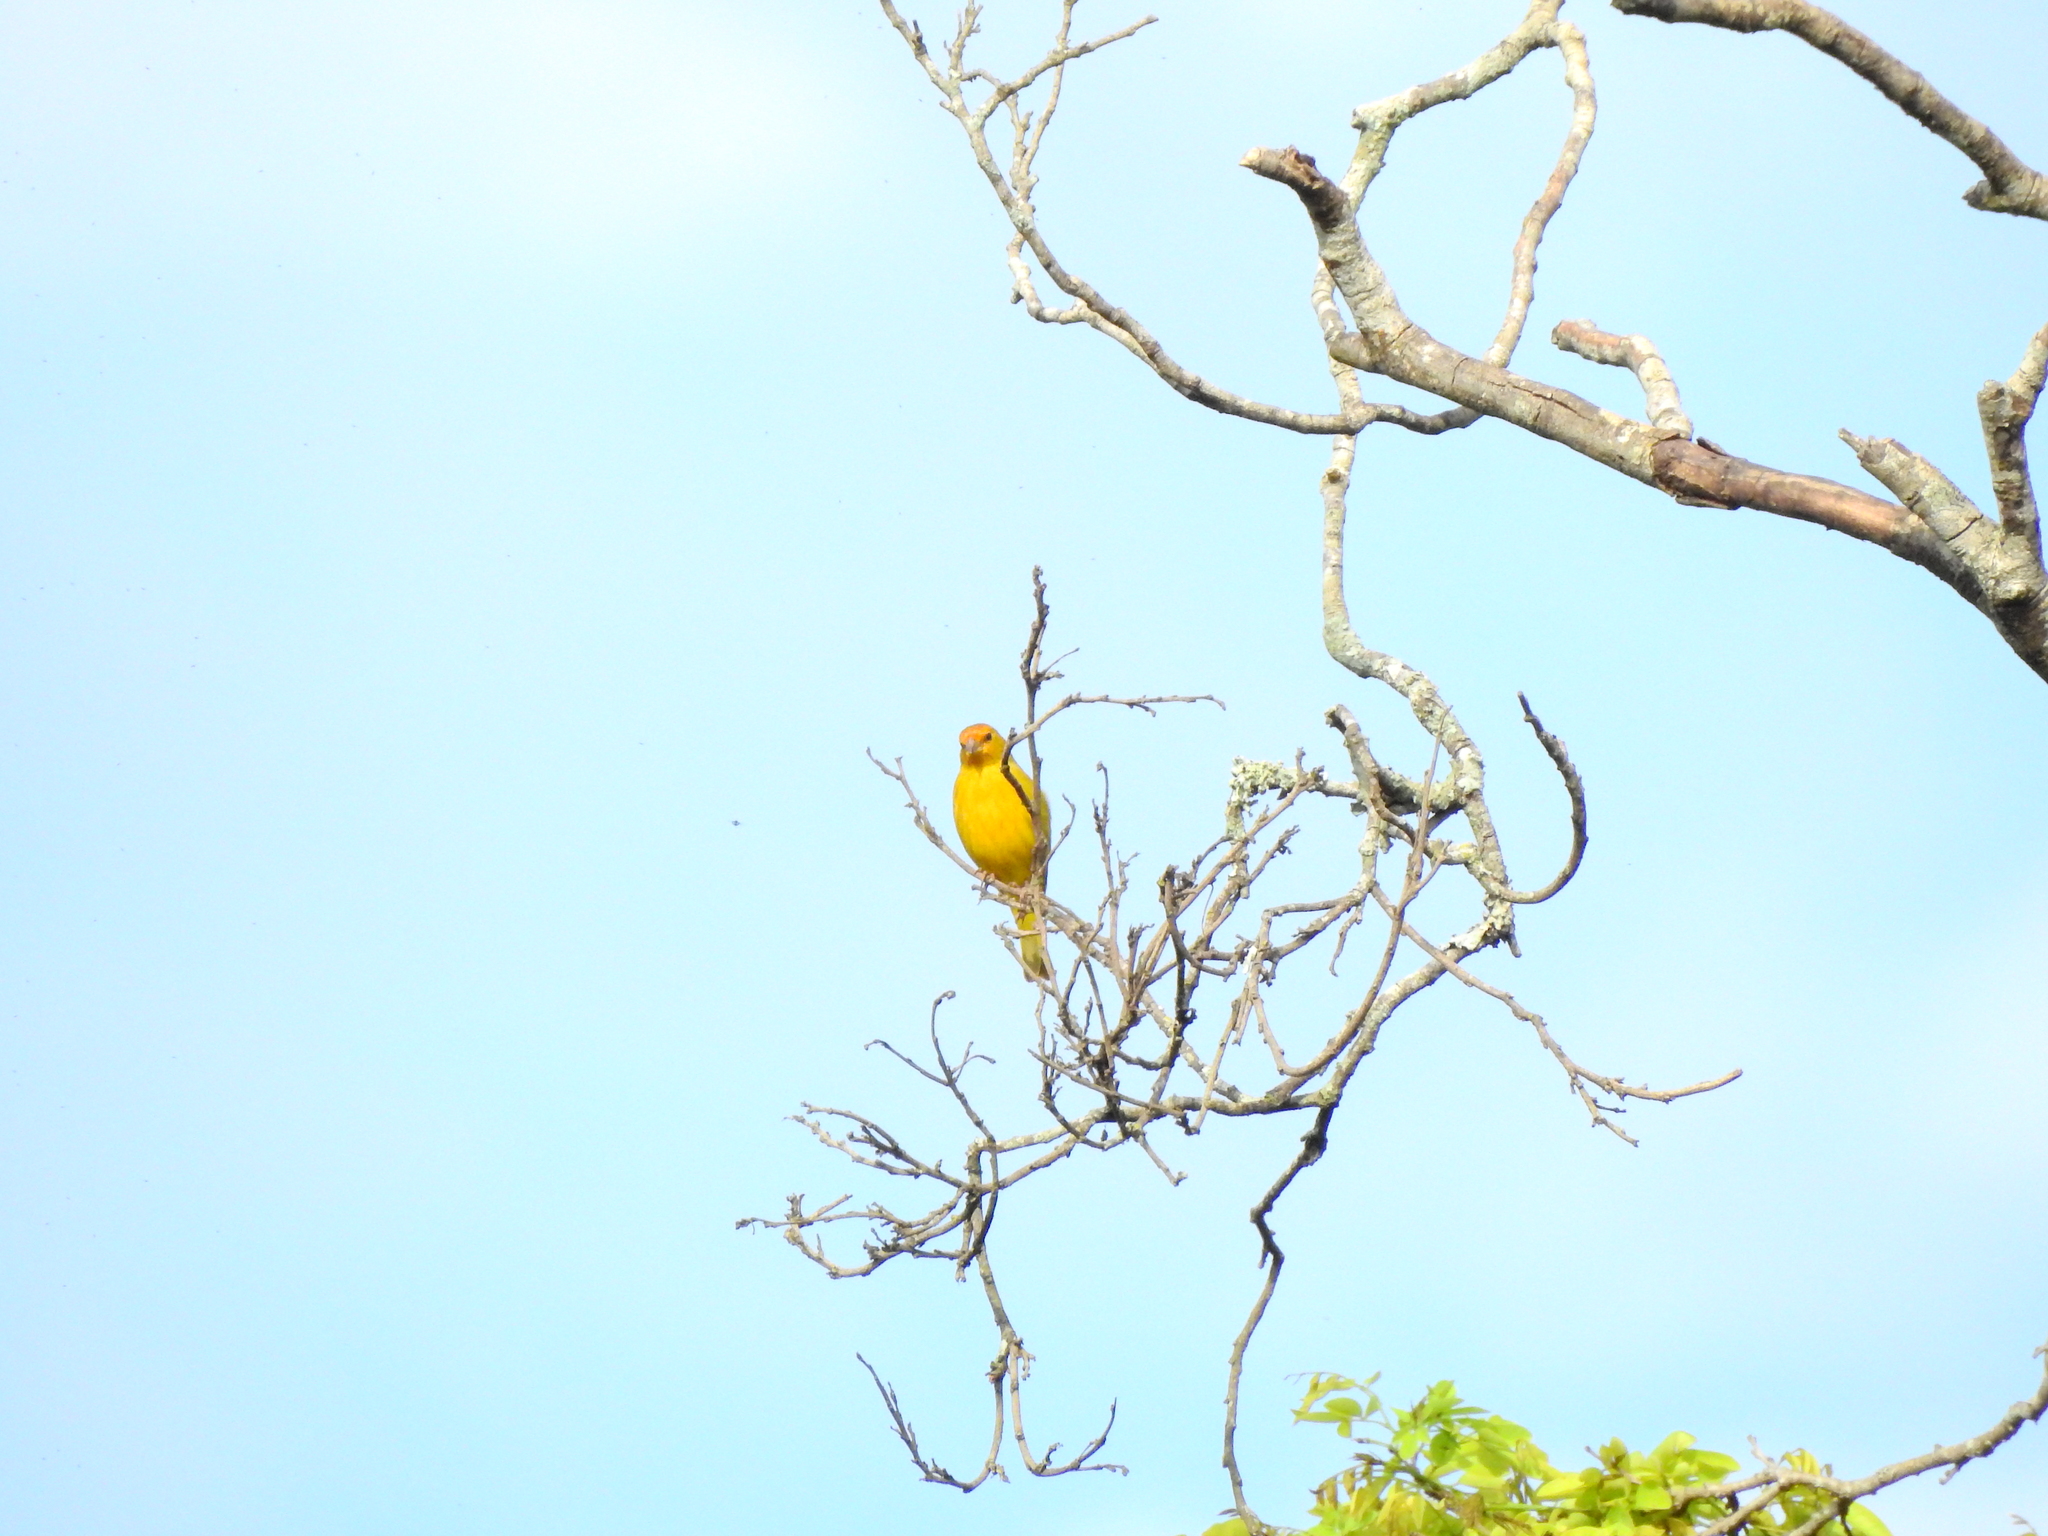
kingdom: Animalia
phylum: Chordata
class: Aves
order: Passeriformes
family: Thraupidae
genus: Sicalis
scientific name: Sicalis flaveola
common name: Saffron finch
